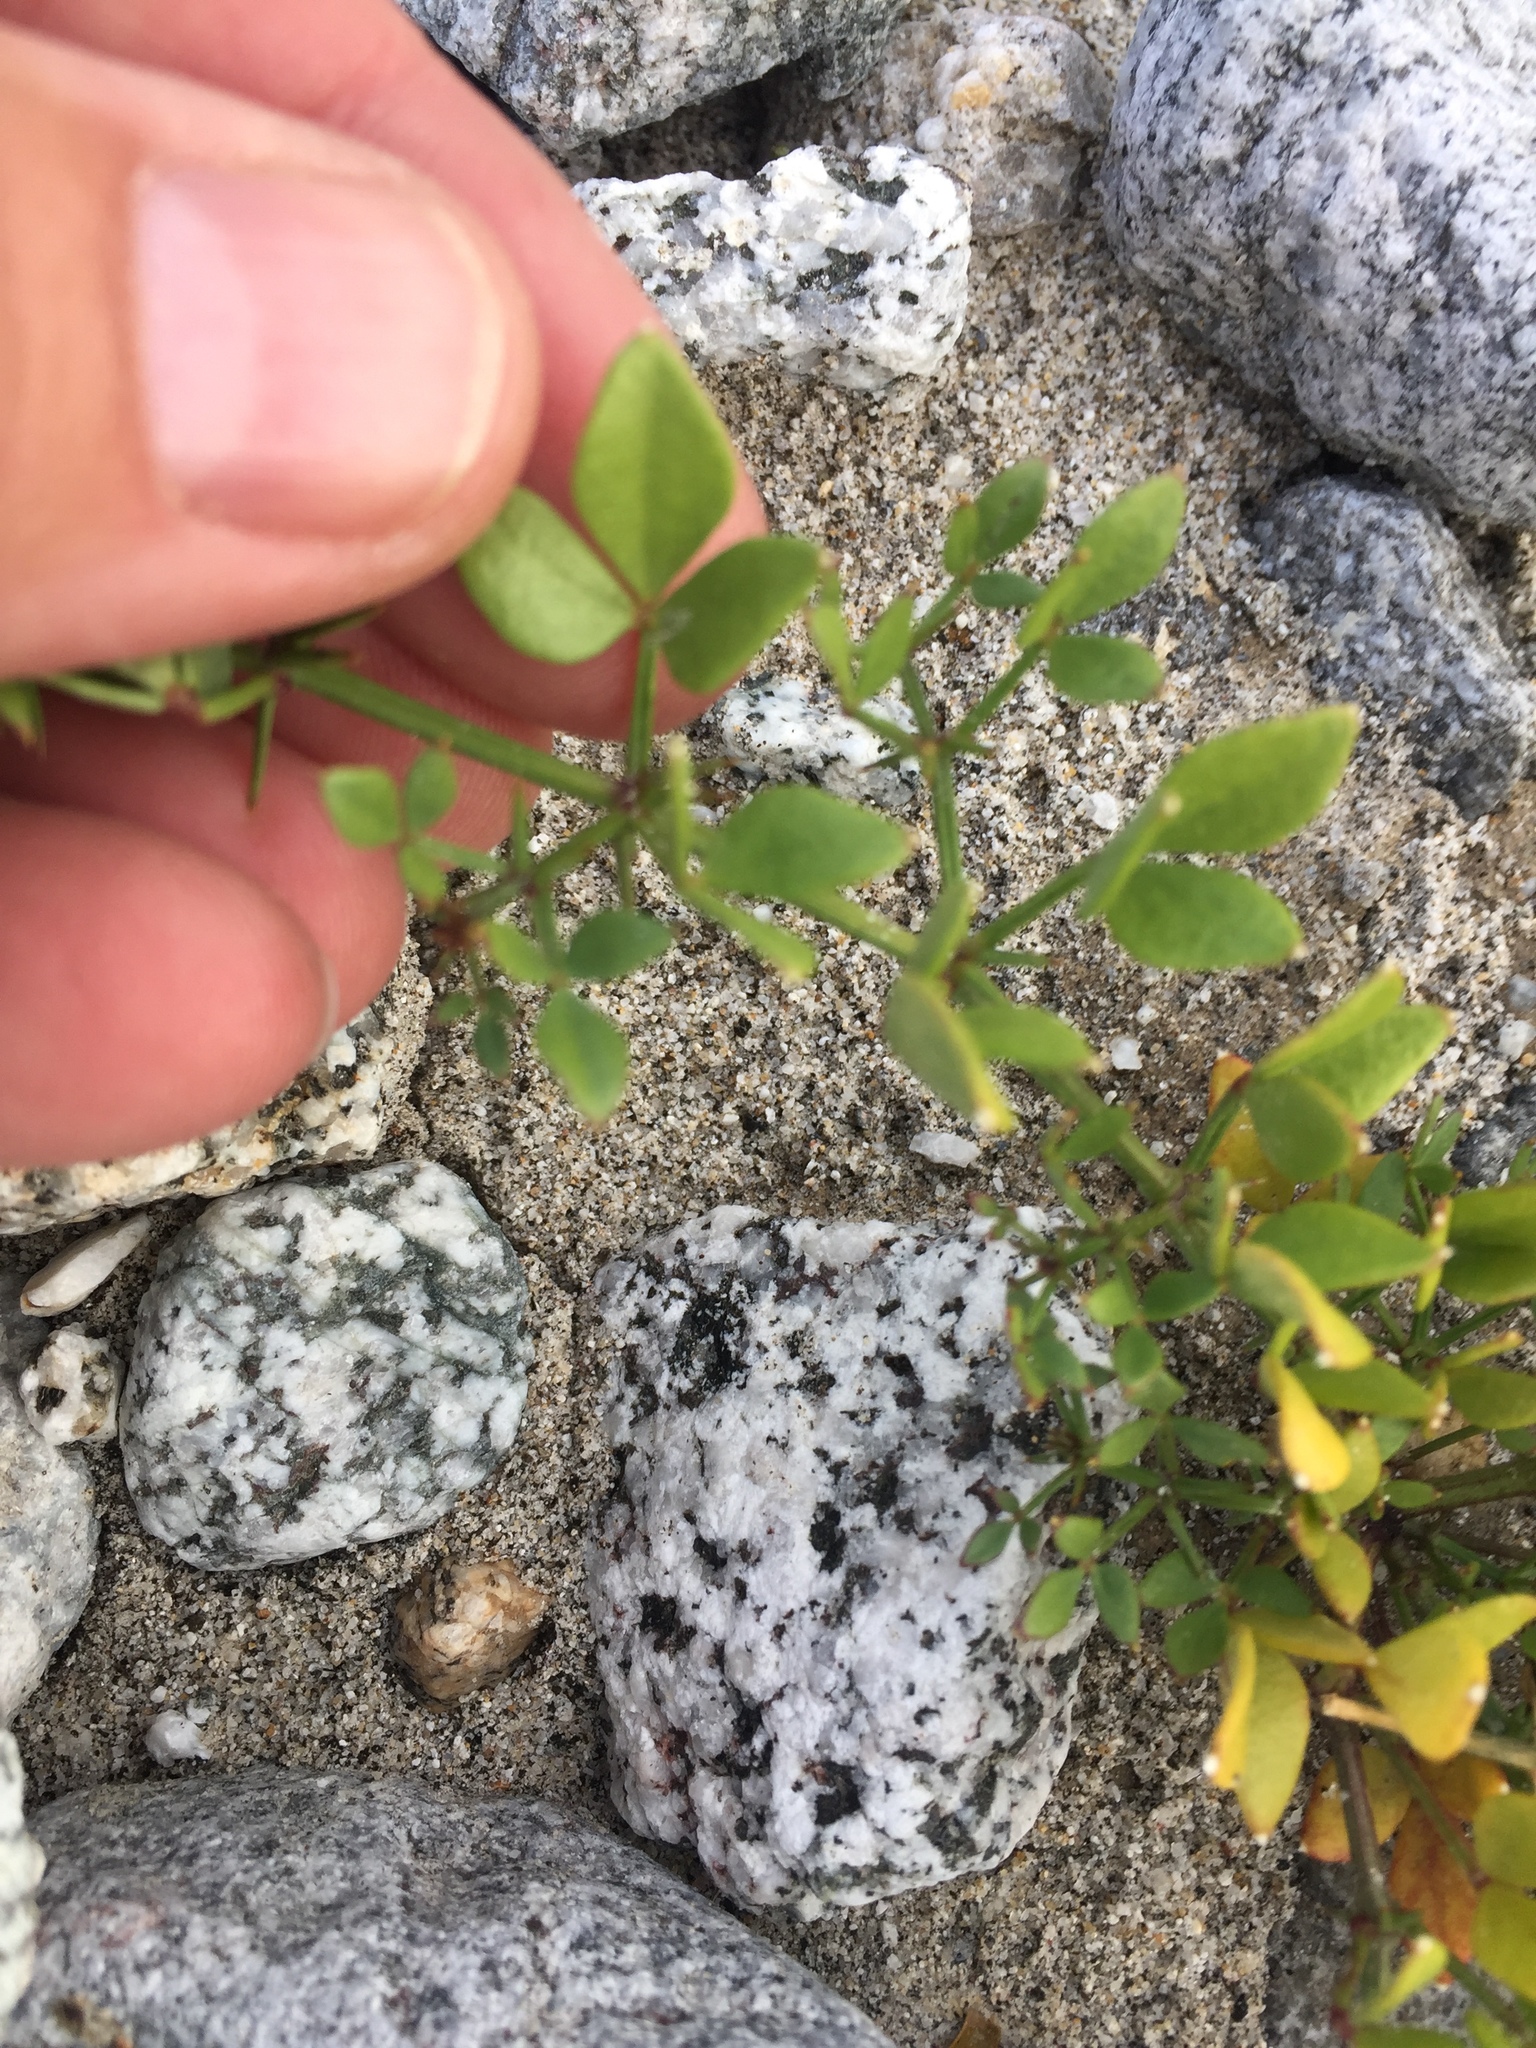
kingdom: Plantae
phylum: Tracheophyta
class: Magnoliopsida
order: Zygophyllales
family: Zygophyllaceae
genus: Fagonia
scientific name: Fagonia pachyacantha
